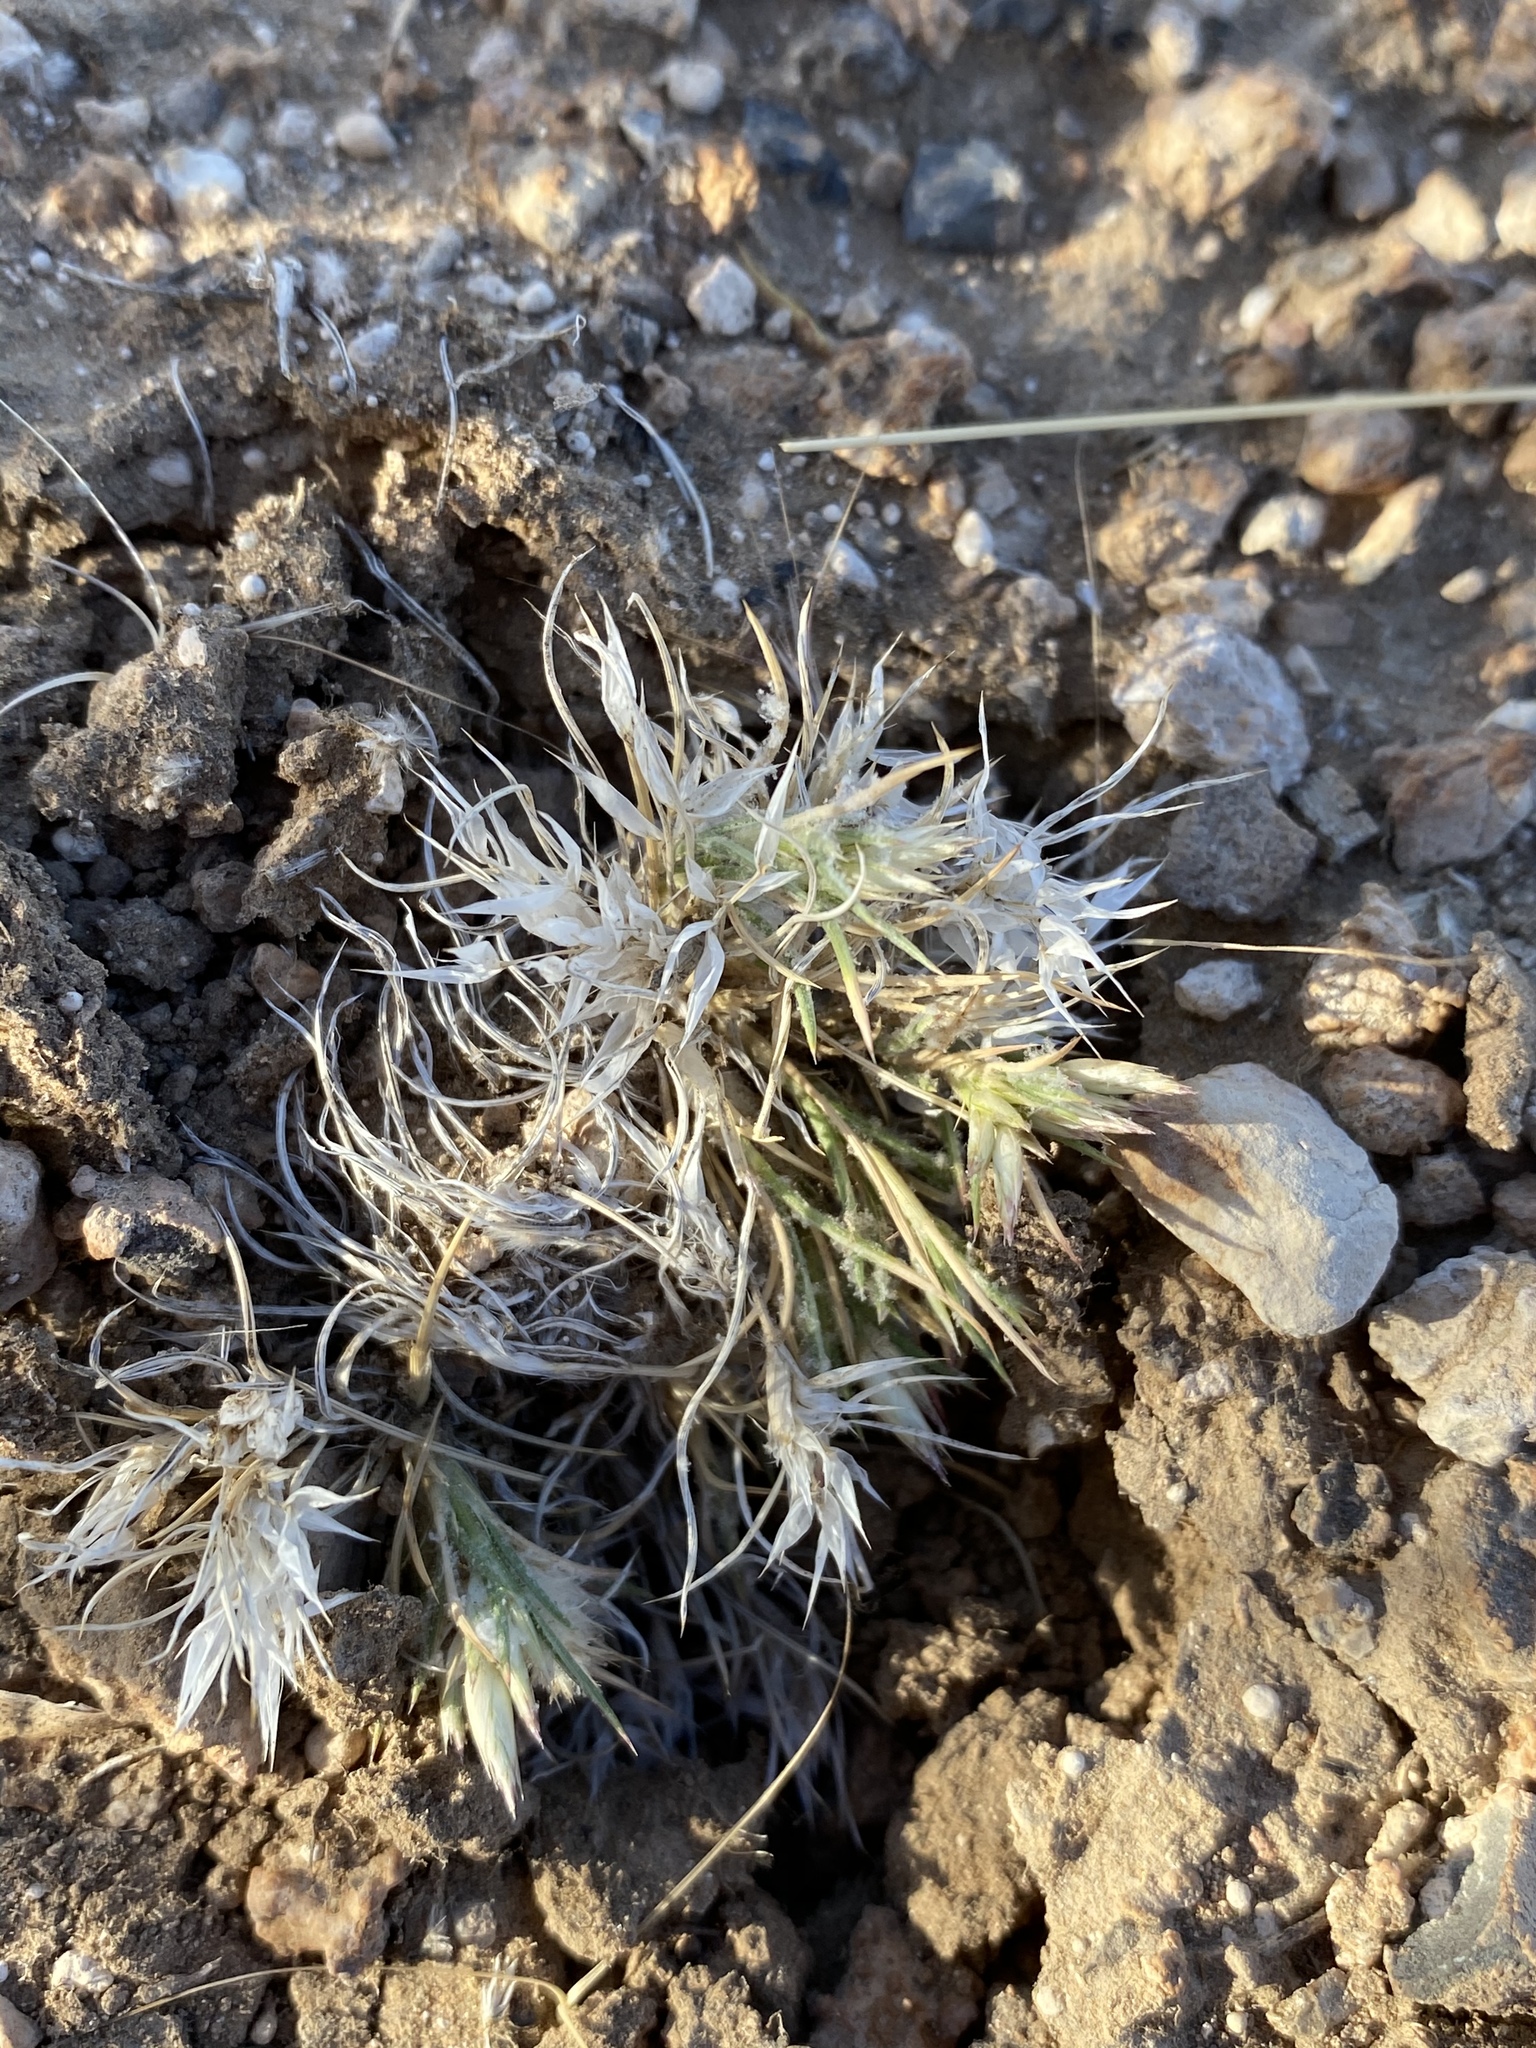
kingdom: Plantae
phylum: Tracheophyta
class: Liliopsida
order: Poales
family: Poaceae
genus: Dasyochloa
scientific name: Dasyochloa pulchella
